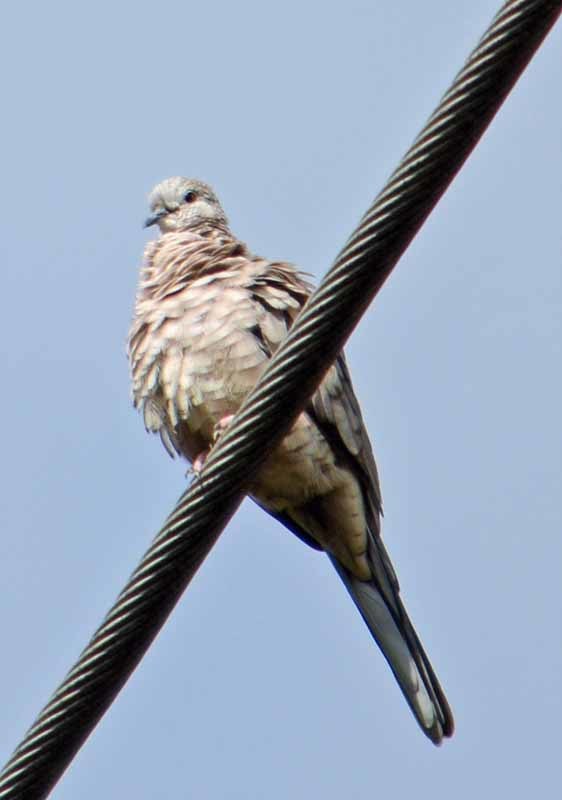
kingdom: Animalia
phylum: Chordata
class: Aves
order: Columbiformes
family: Columbidae
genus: Columbina
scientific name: Columbina inca
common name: Inca dove
